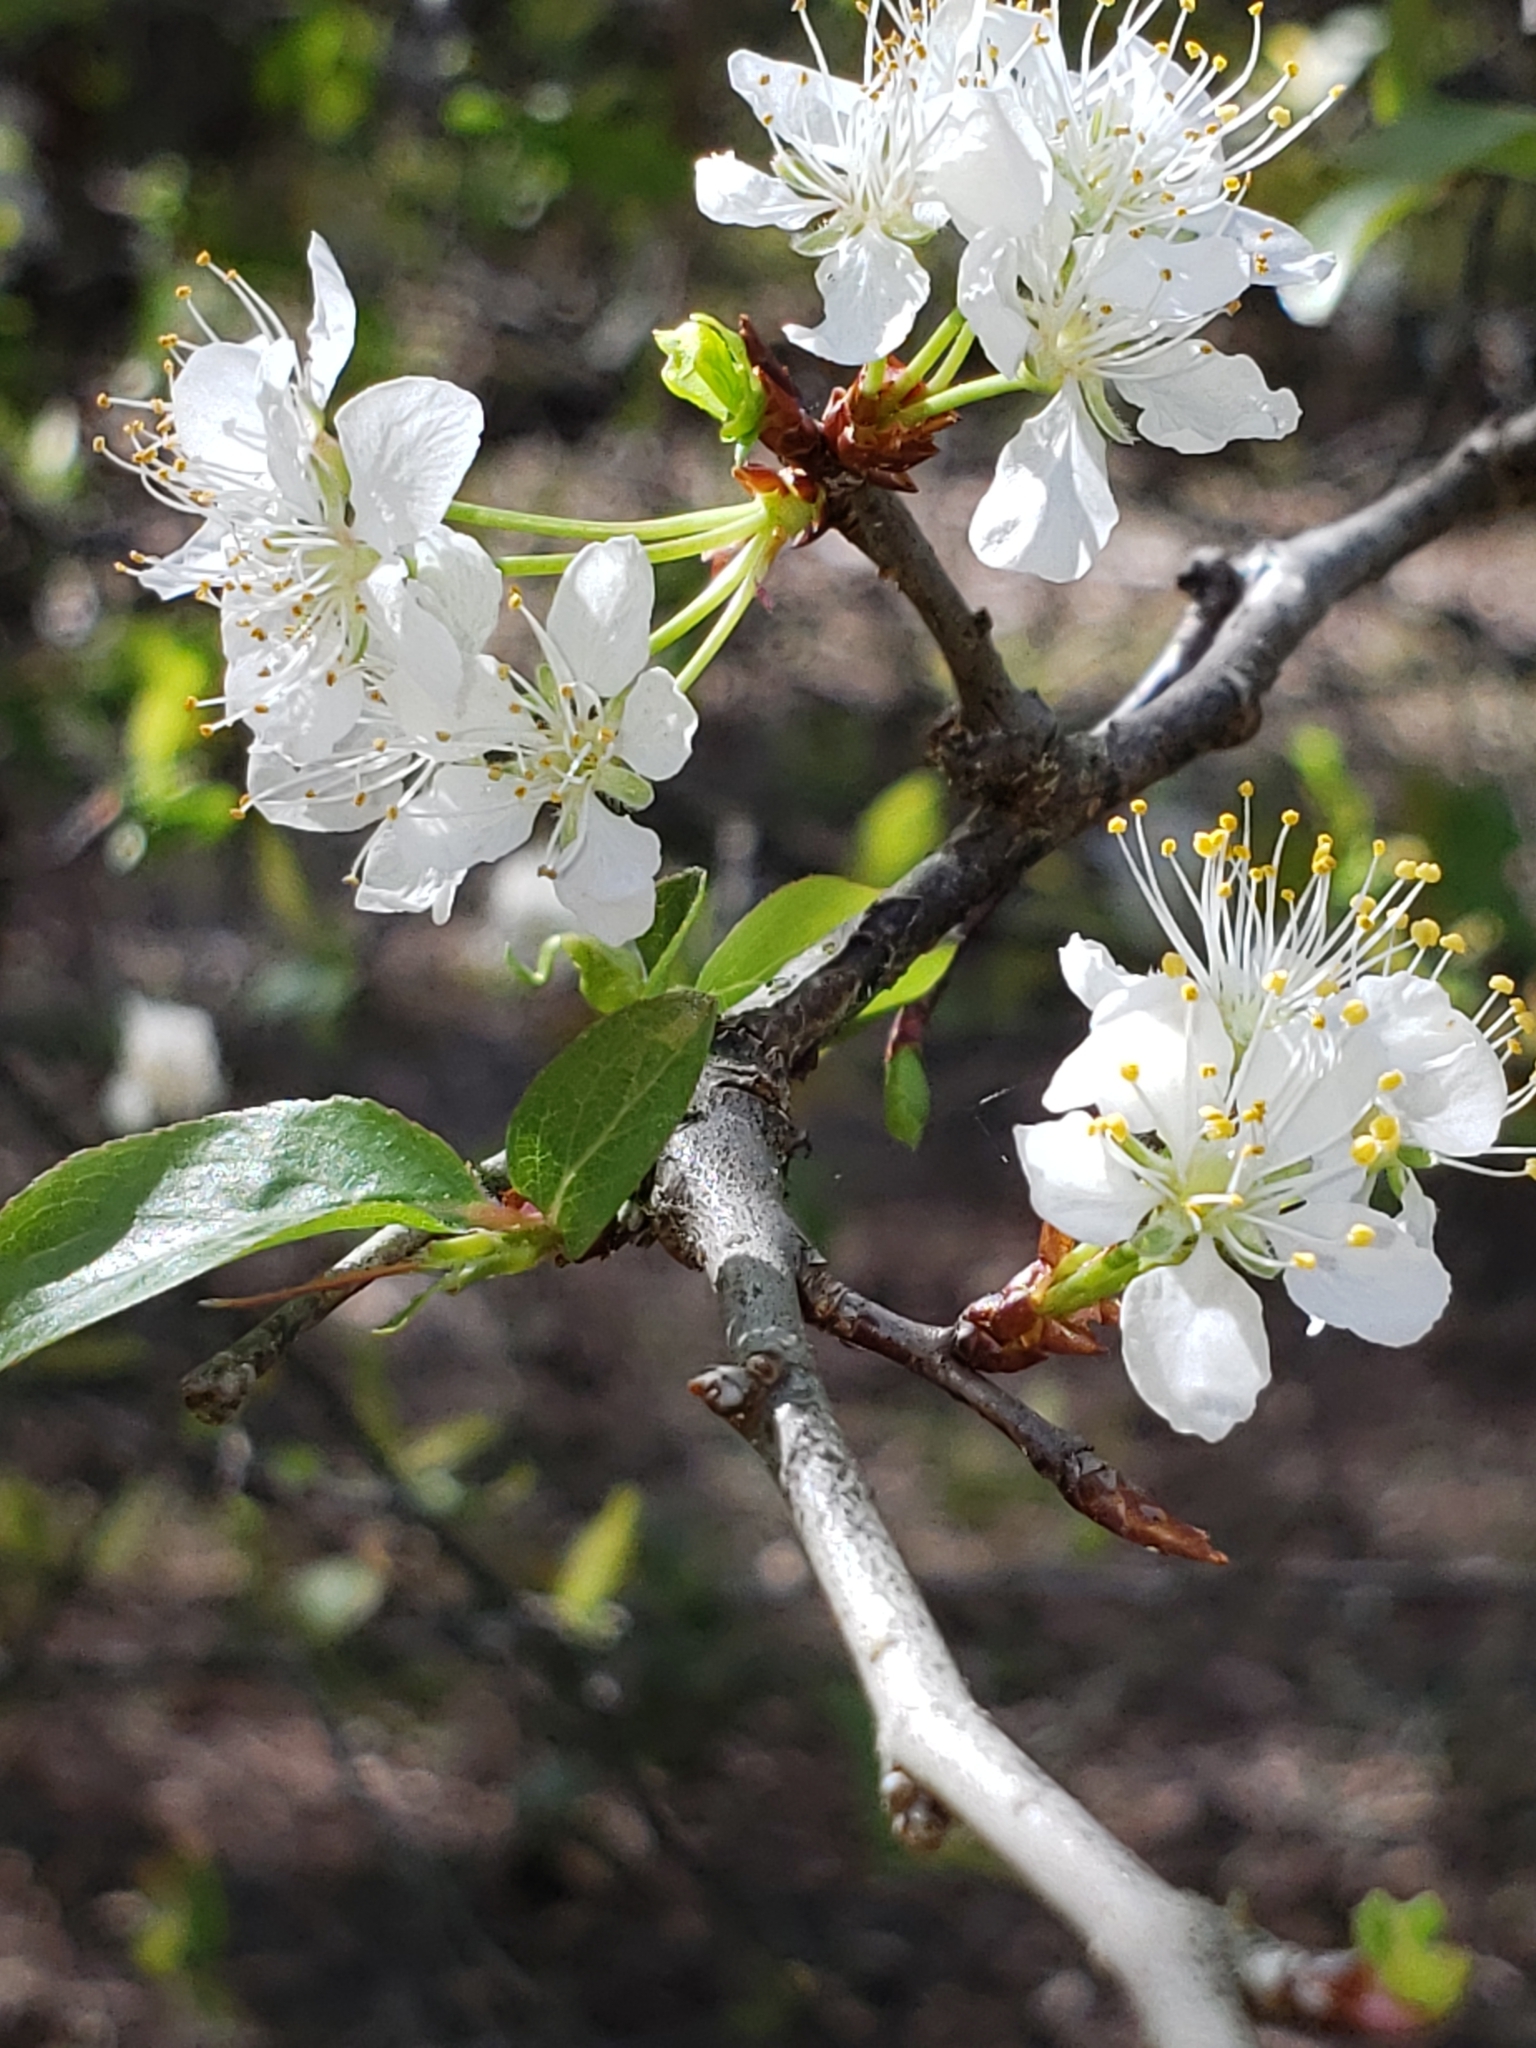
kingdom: Plantae
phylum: Tracheophyta
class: Magnoliopsida
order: Rosales
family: Rosaceae
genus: Prunus
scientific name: Prunus angustifolia
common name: Cherokee plum
